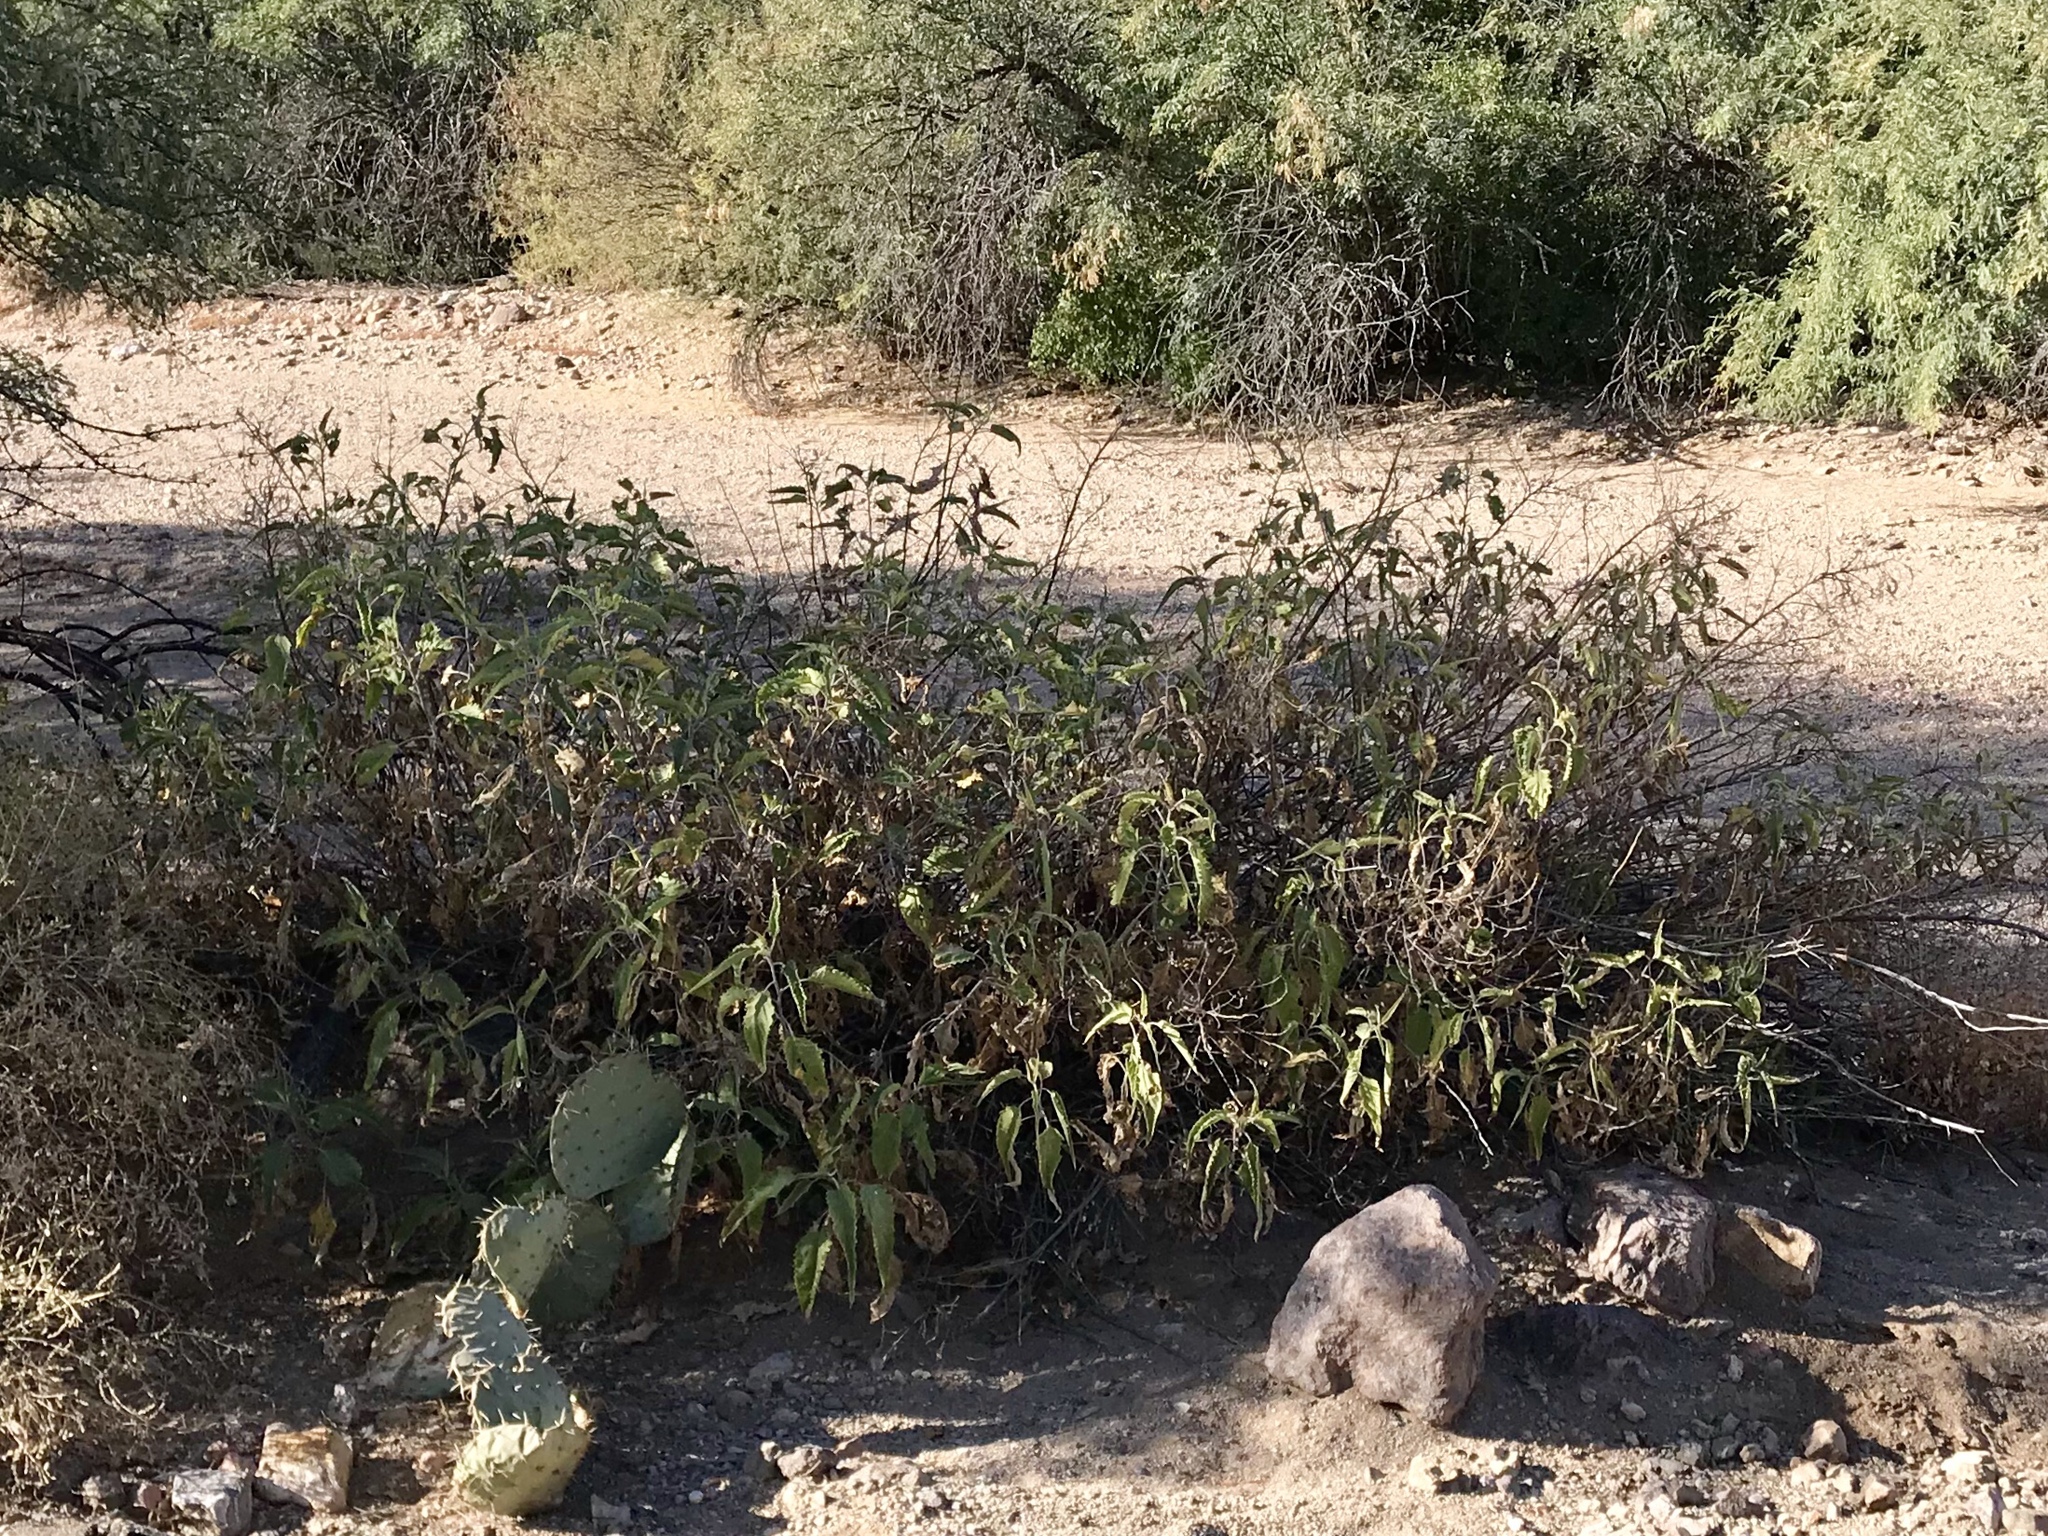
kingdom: Plantae
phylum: Tracheophyta
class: Magnoliopsida
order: Asterales
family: Asteraceae
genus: Ambrosia
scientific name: Ambrosia ambrosioides
